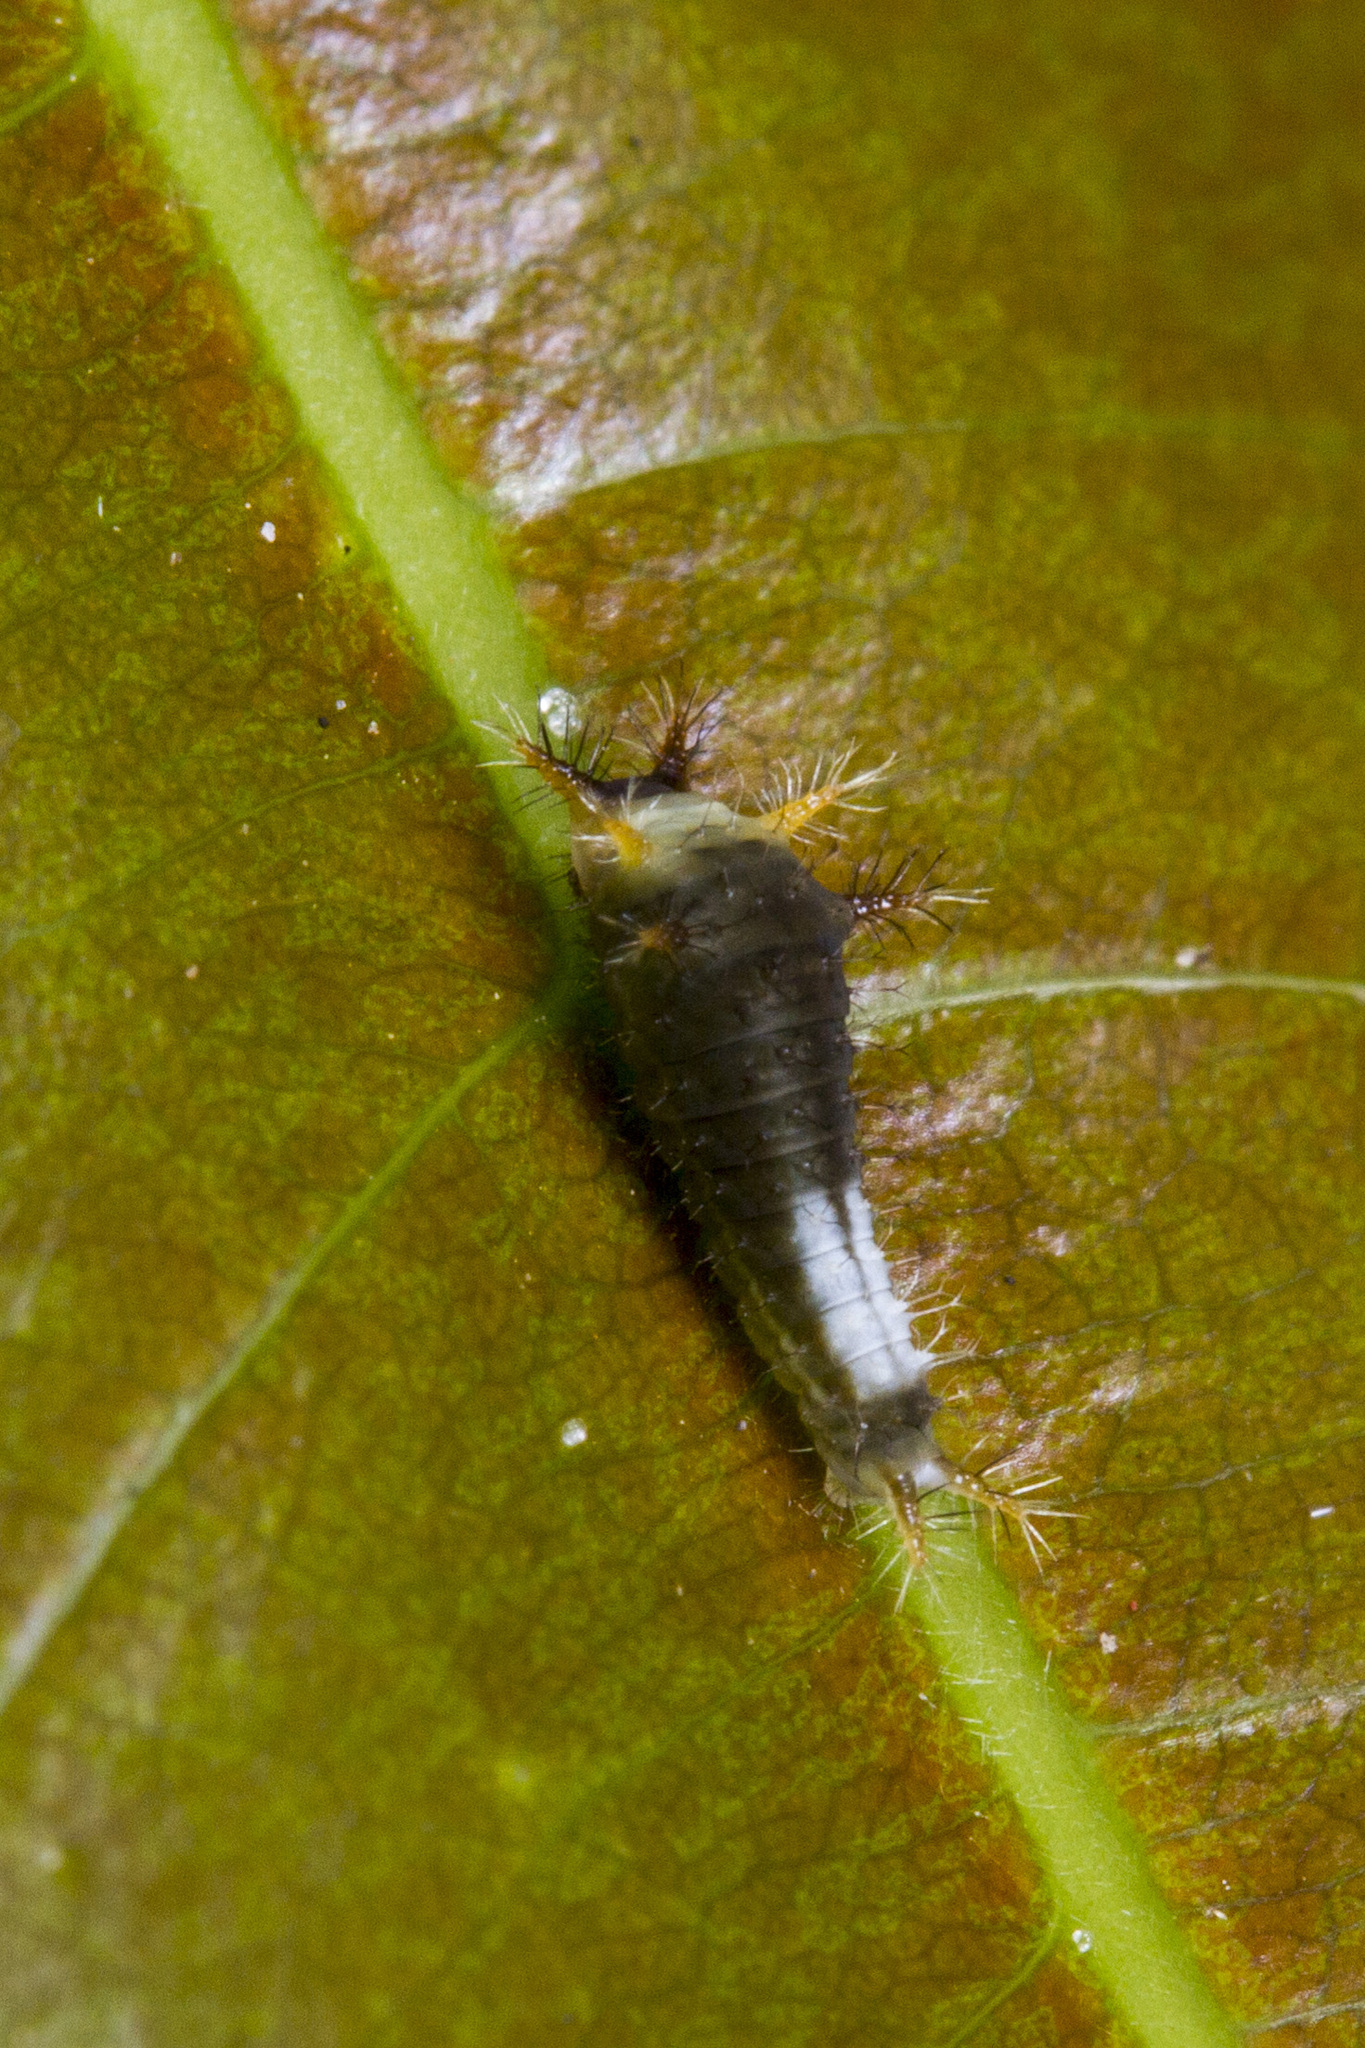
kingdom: Animalia
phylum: Arthropoda
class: Insecta
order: Lepidoptera
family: Papilionidae
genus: Graphium
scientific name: Graphium agamemnon
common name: Tailed jay
